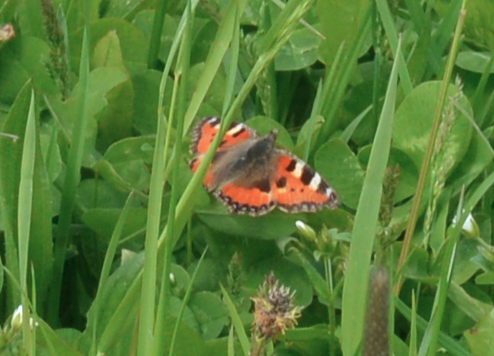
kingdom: Animalia
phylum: Arthropoda
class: Insecta
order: Lepidoptera
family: Nymphalidae
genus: Aglais
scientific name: Aglais urticae
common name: Small tortoiseshell
